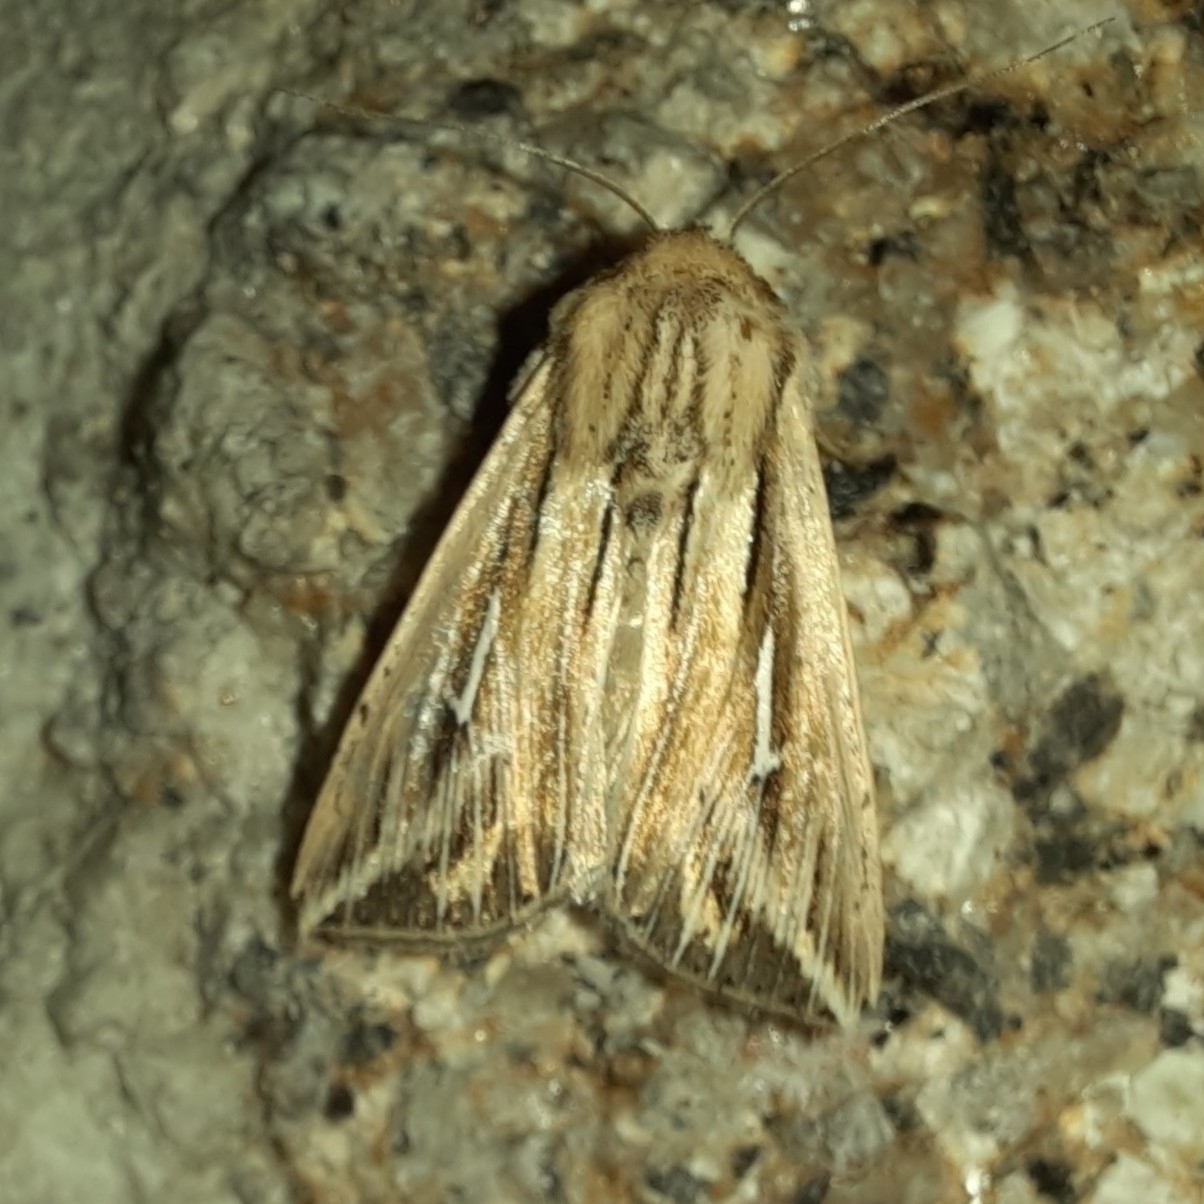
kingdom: Animalia
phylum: Arthropoda
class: Insecta
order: Lepidoptera
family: Noctuidae
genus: Mythimna
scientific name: Mythimna l-album
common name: L-album wainscot
